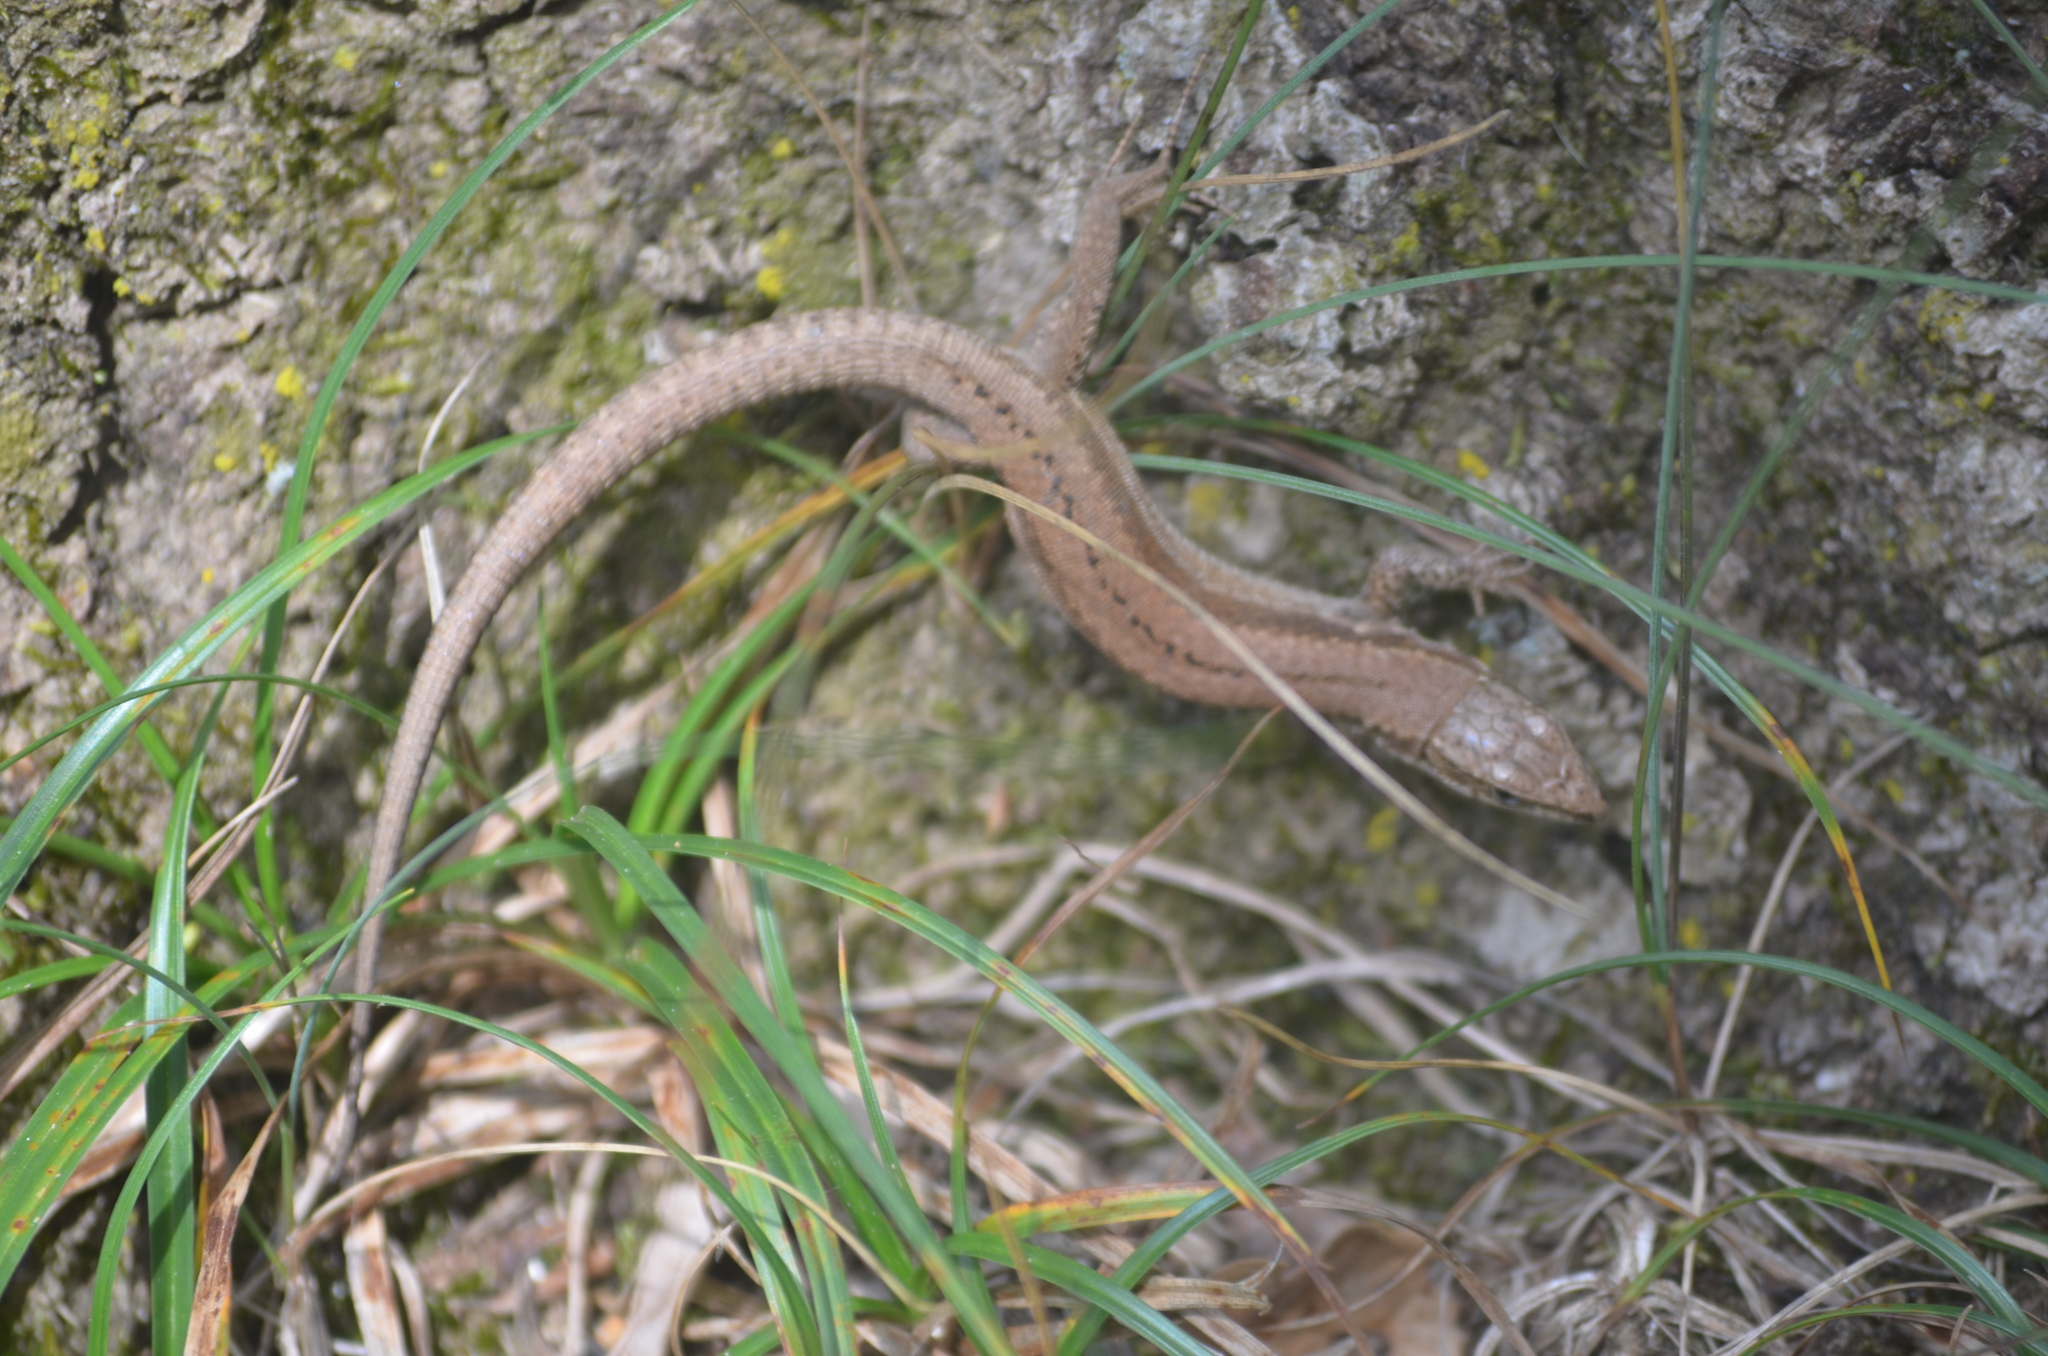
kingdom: Animalia
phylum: Chordata
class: Squamata
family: Lacertidae
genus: Podarcis
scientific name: Podarcis muralis
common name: Common wall lizard
